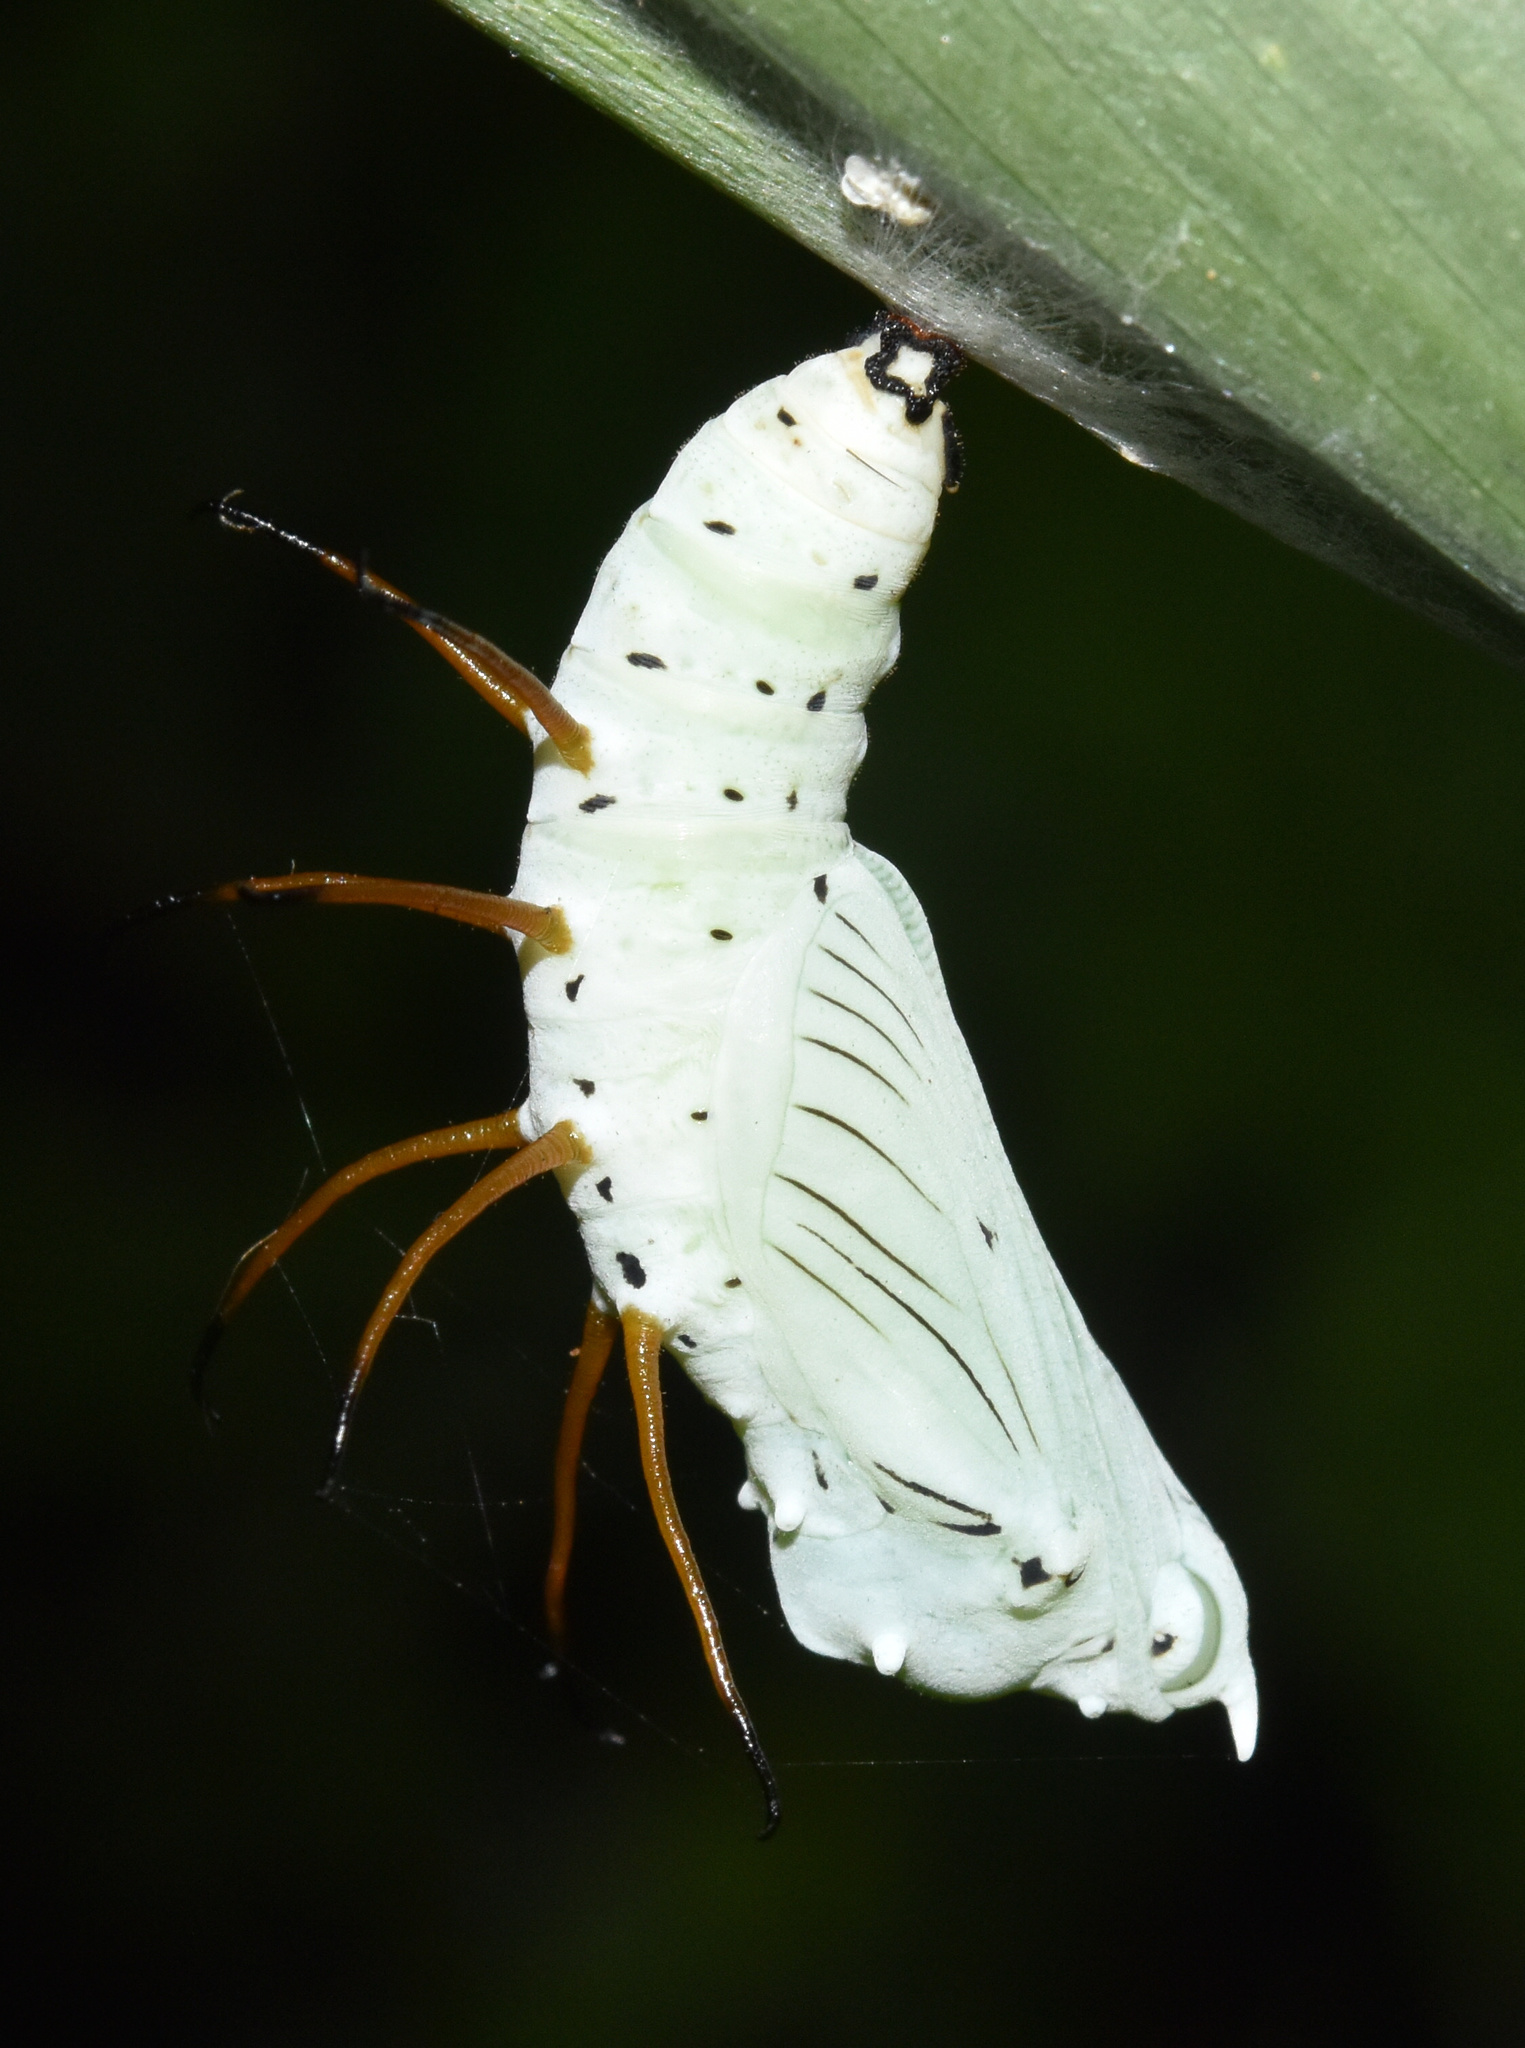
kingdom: Animalia
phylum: Arthropoda
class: Insecta
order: Lepidoptera
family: Nymphalidae
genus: Acraea
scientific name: Acraea Bematistes aganice
